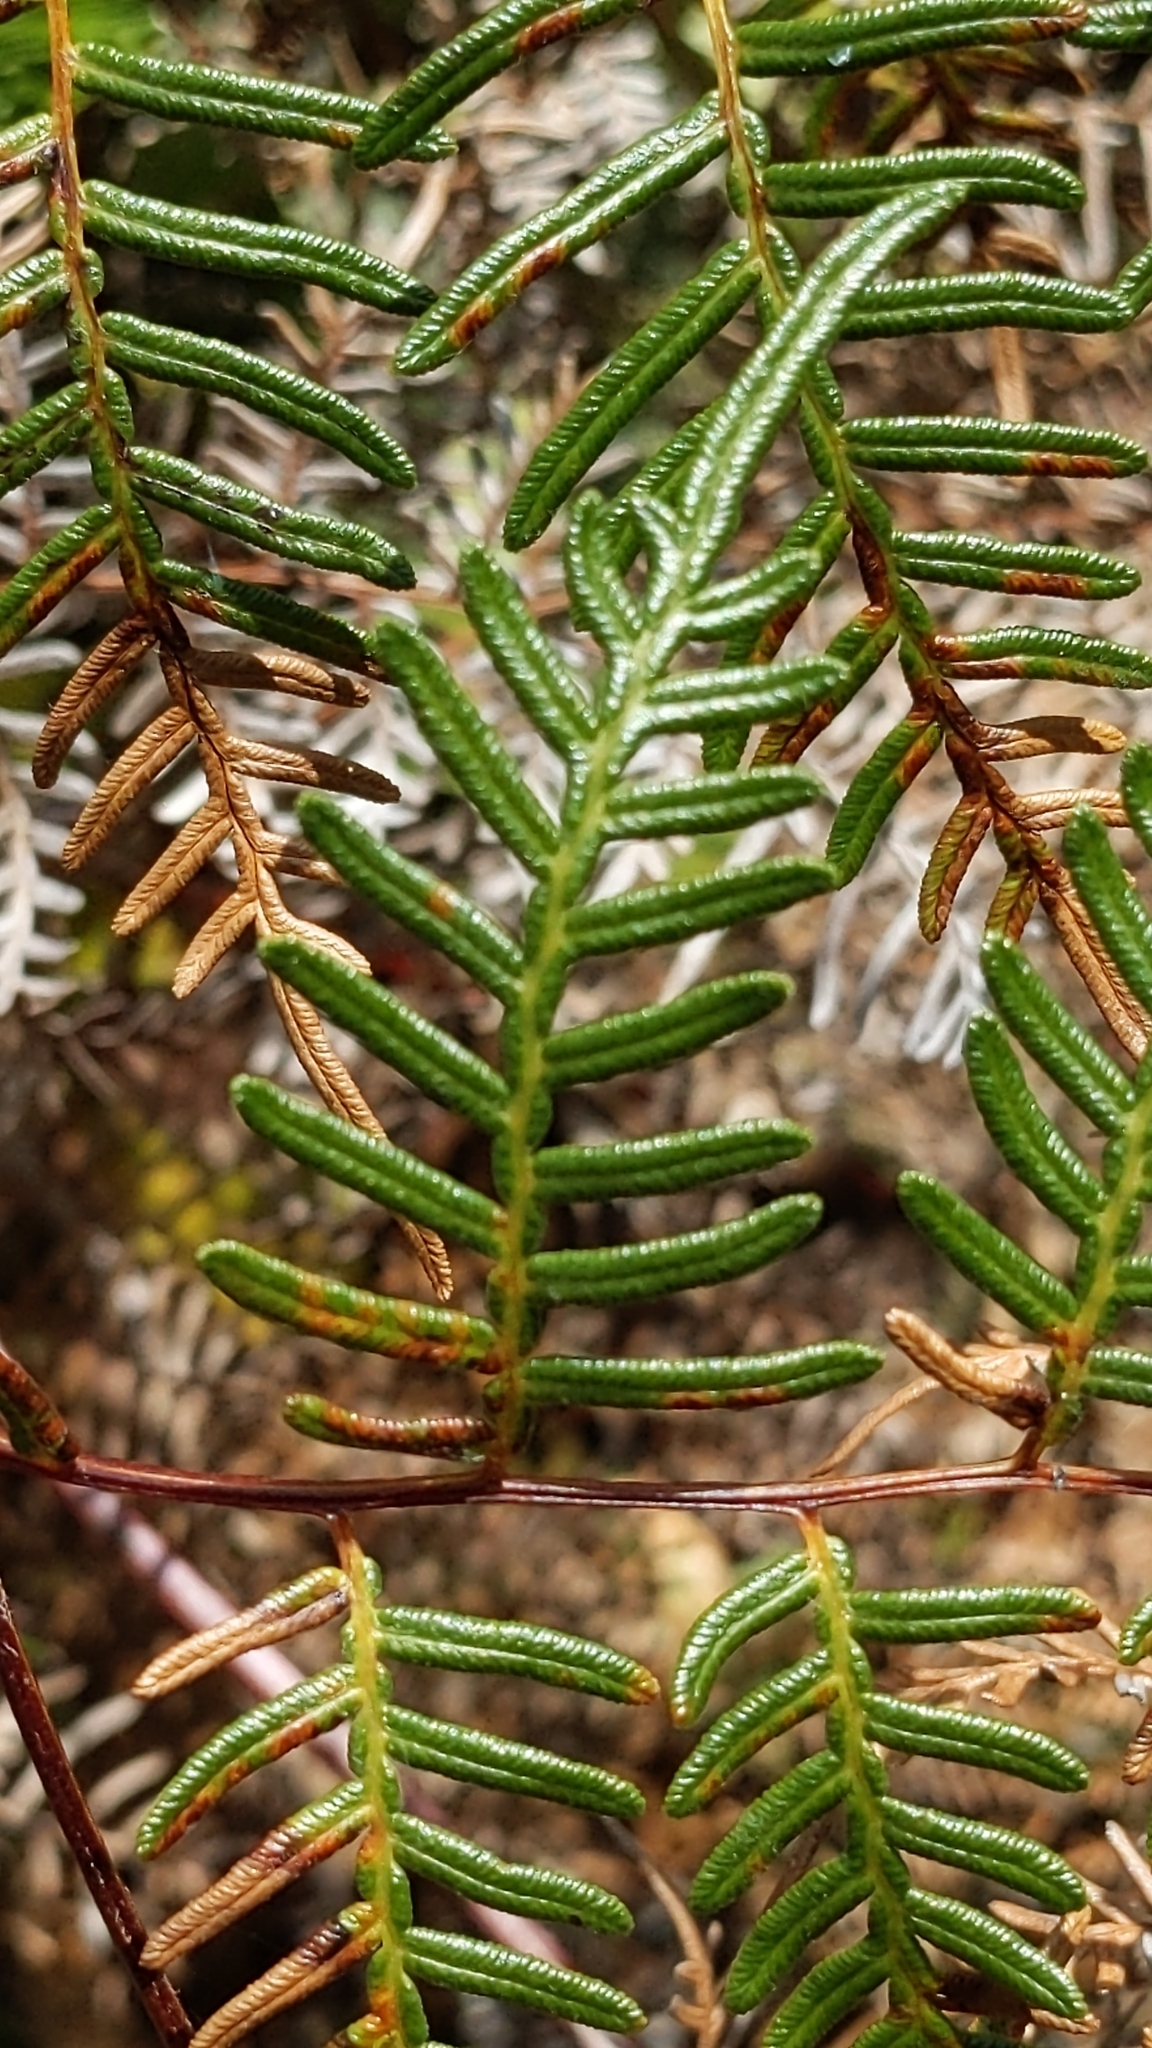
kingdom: Plantae
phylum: Tracheophyta
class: Polypodiopsida
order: Polypodiales
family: Dennstaedtiaceae
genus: Pteridium
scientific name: Pteridium esculentum
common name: Bracken fern
